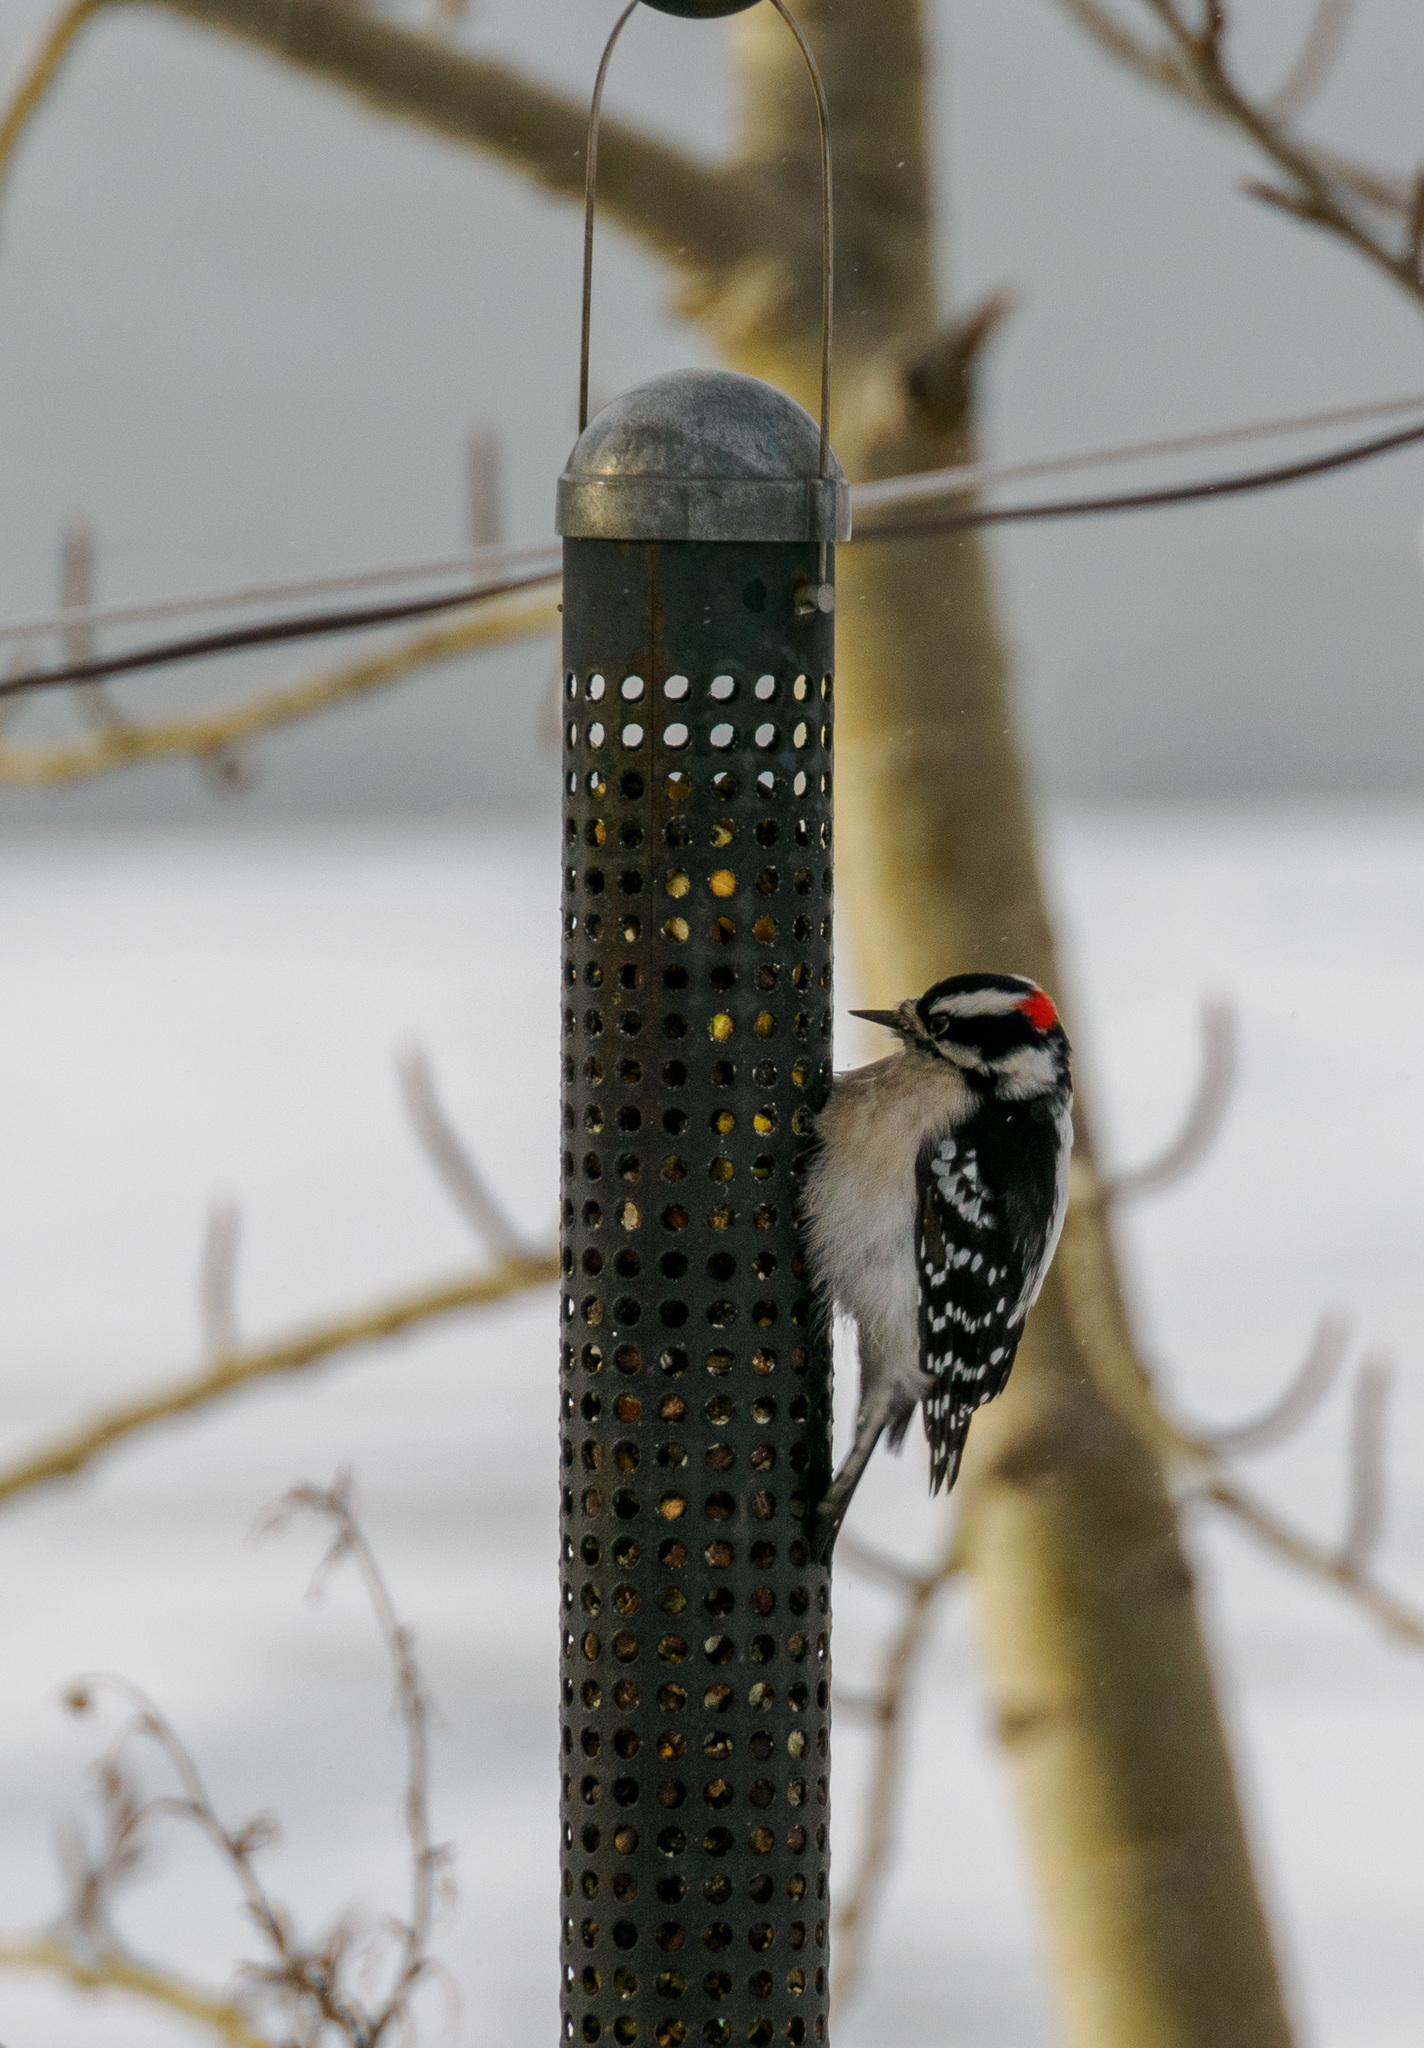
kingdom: Animalia
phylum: Chordata
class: Aves
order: Piciformes
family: Picidae
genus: Dryobates
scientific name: Dryobates pubescens
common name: Downy woodpecker
